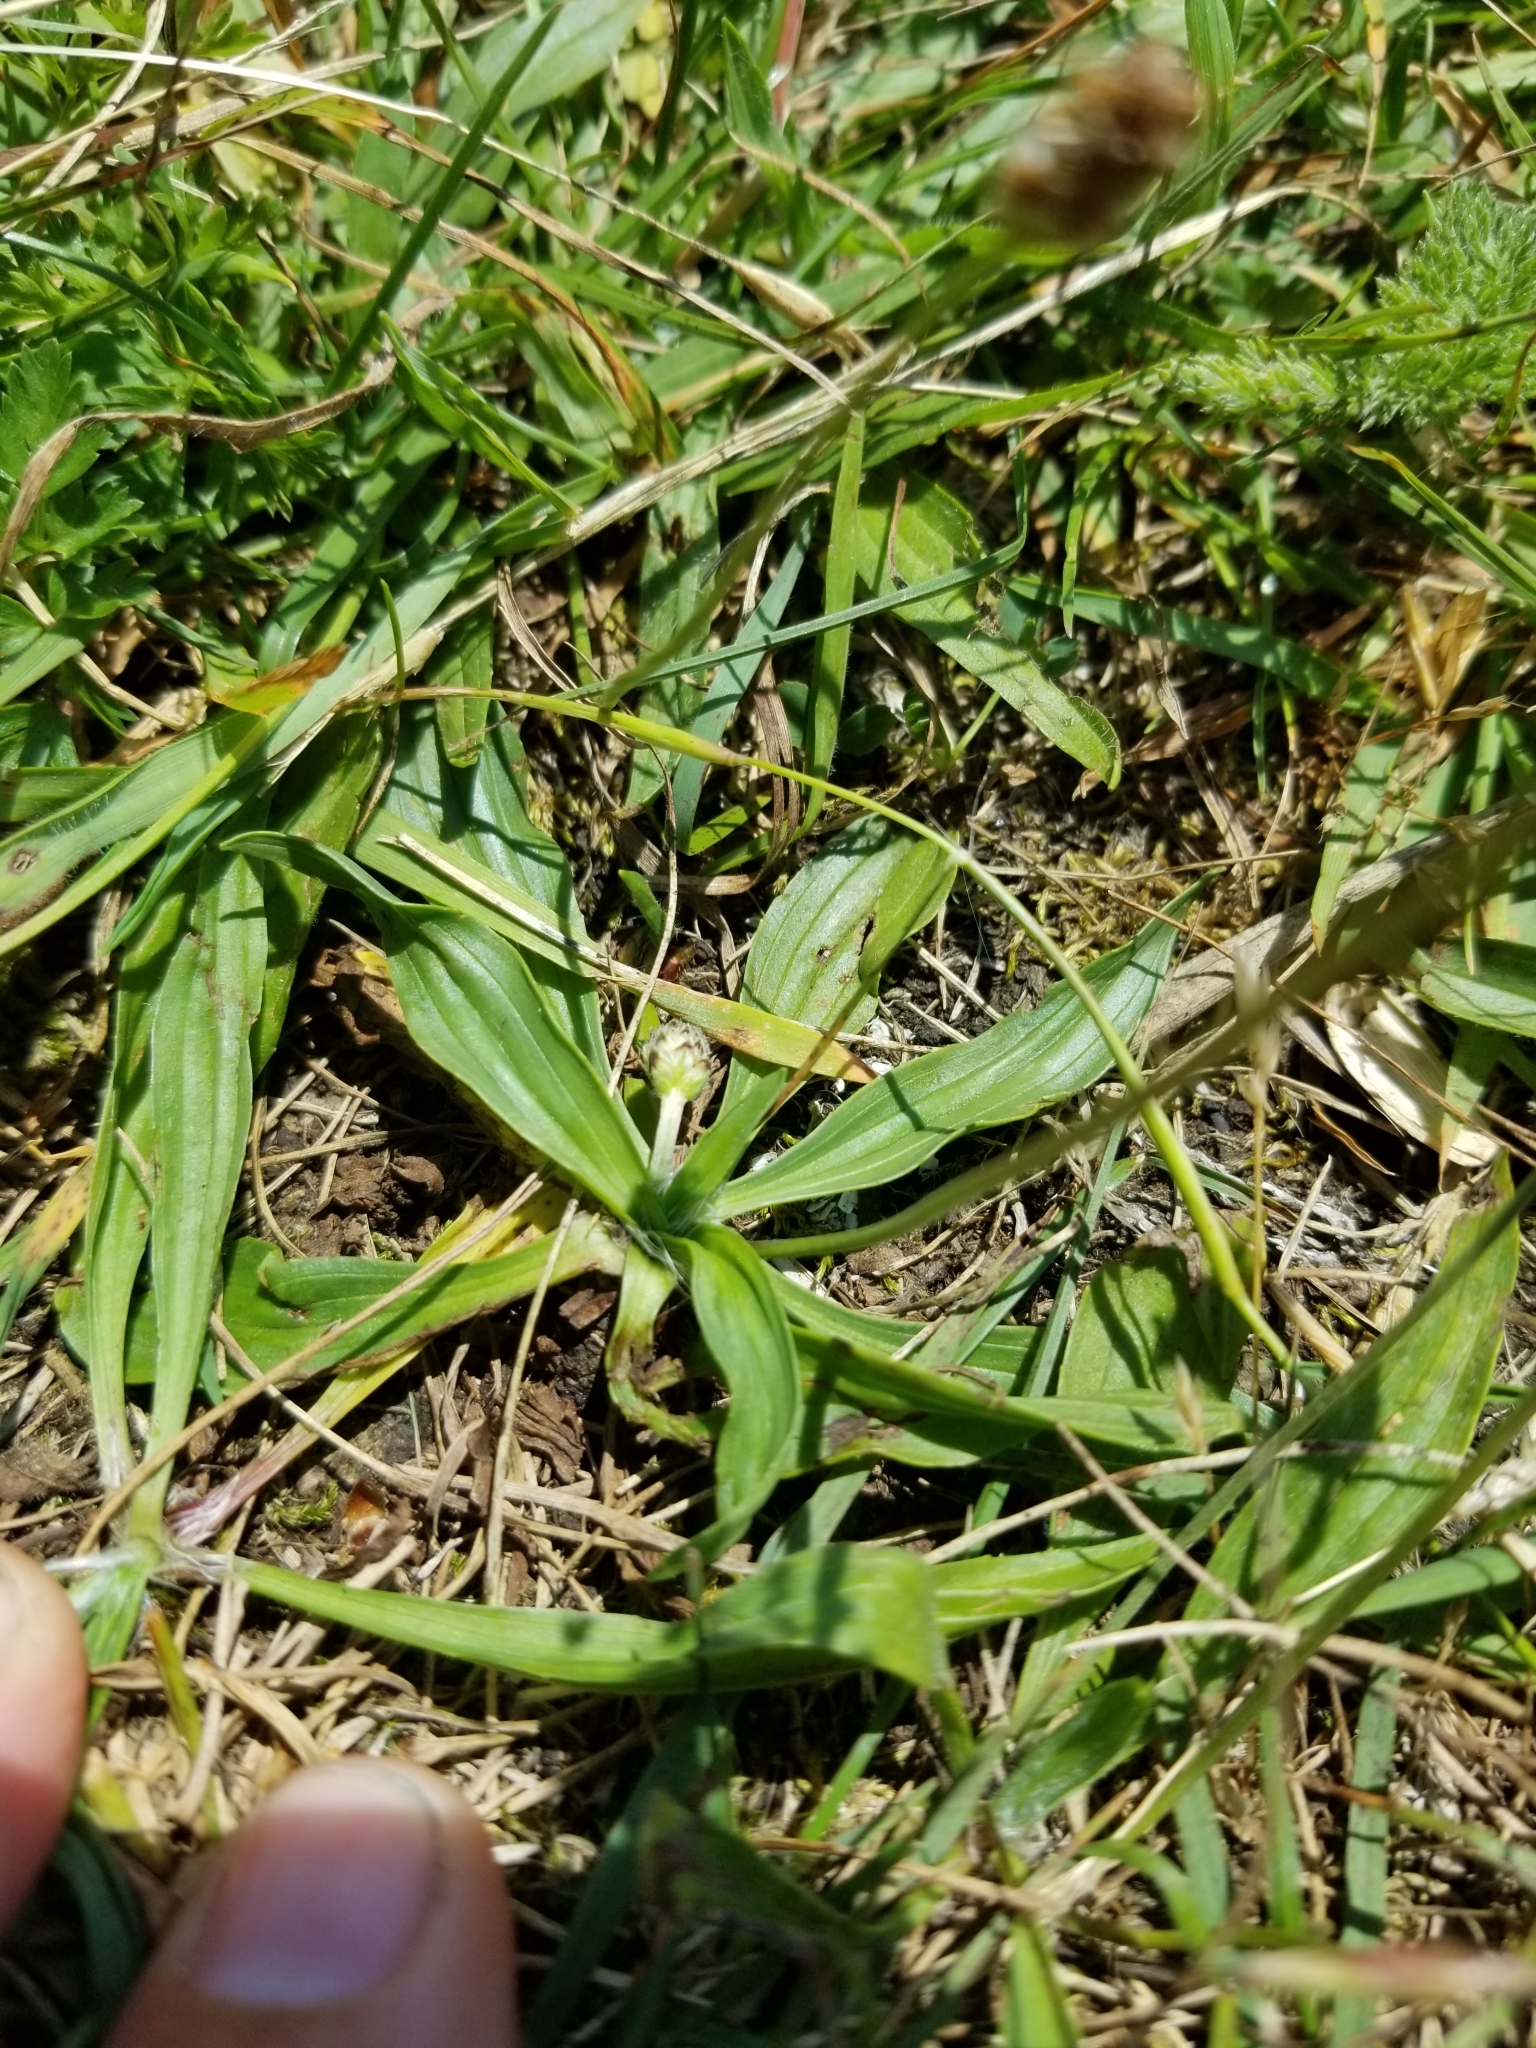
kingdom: Plantae
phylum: Tracheophyta
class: Magnoliopsida
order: Lamiales
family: Plantaginaceae
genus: Plantago
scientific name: Plantago lanceolata
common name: Ribwort plantain
